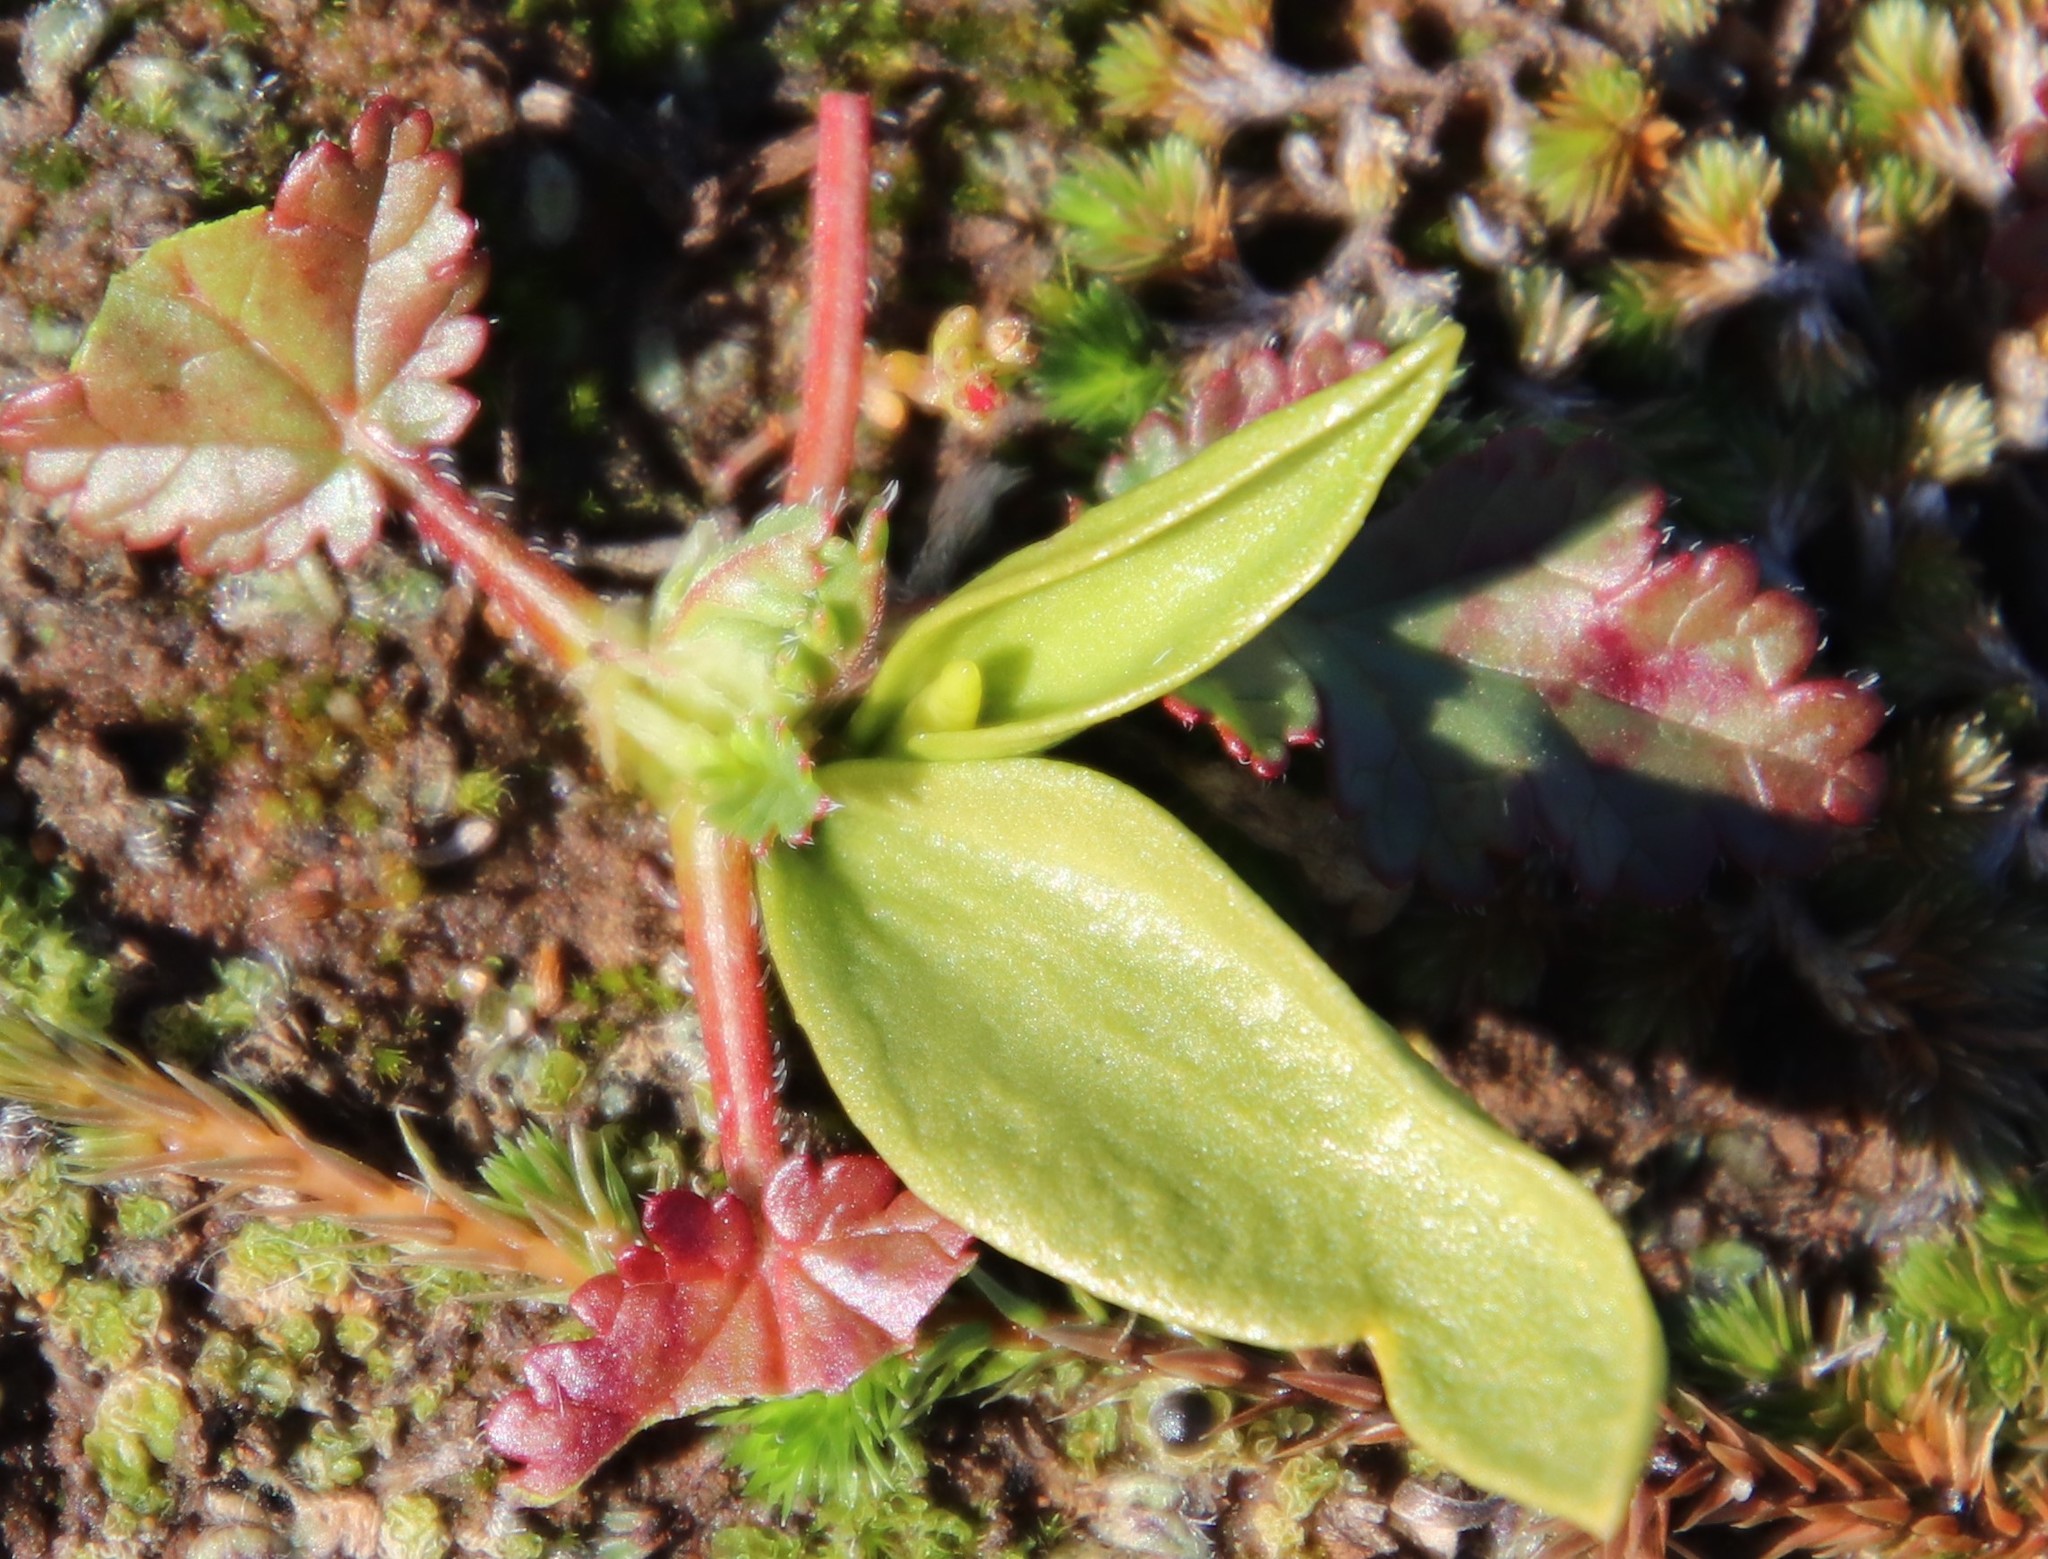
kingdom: Plantae
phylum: Tracheophyta
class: Polypodiopsida
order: Ophioglossales
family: Ophioglossaceae
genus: Ophioglossum
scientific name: Ophioglossum californicum
